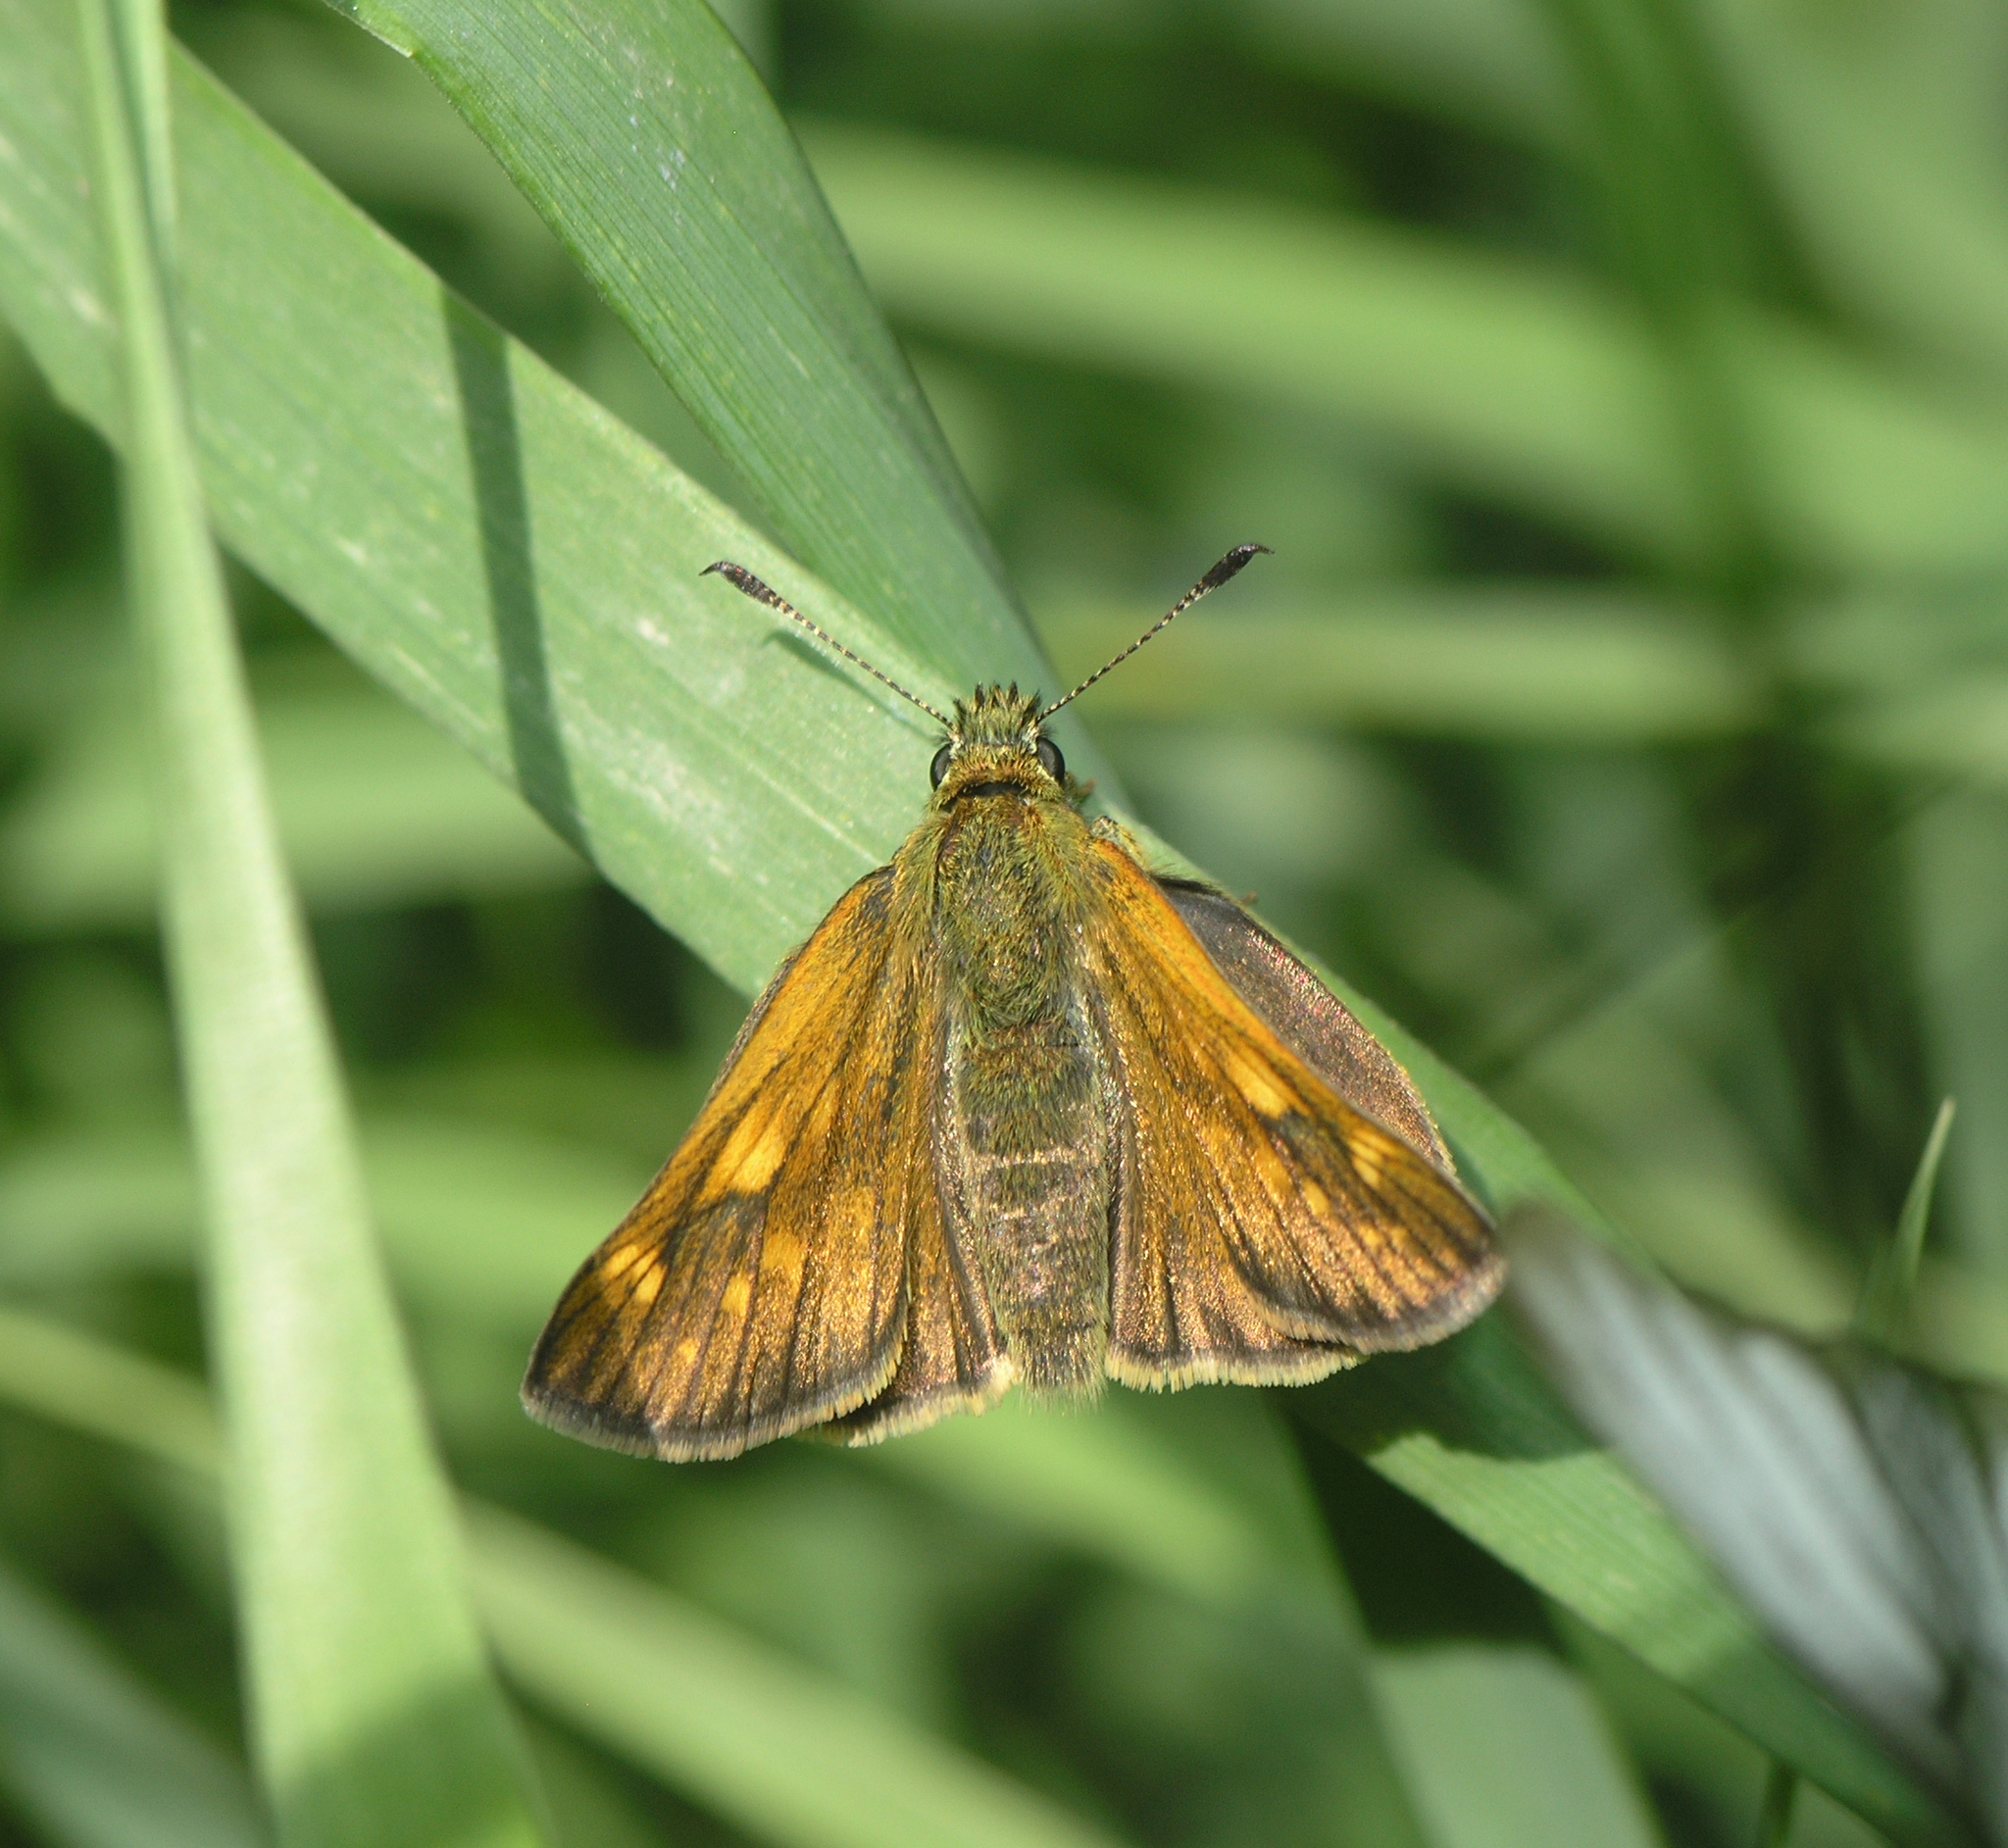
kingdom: Animalia
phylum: Arthropoda
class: Insecta
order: Lepidoptera
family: Hesperiidae
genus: Ochlodes
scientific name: Ochlodes venata
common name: Large skipper
